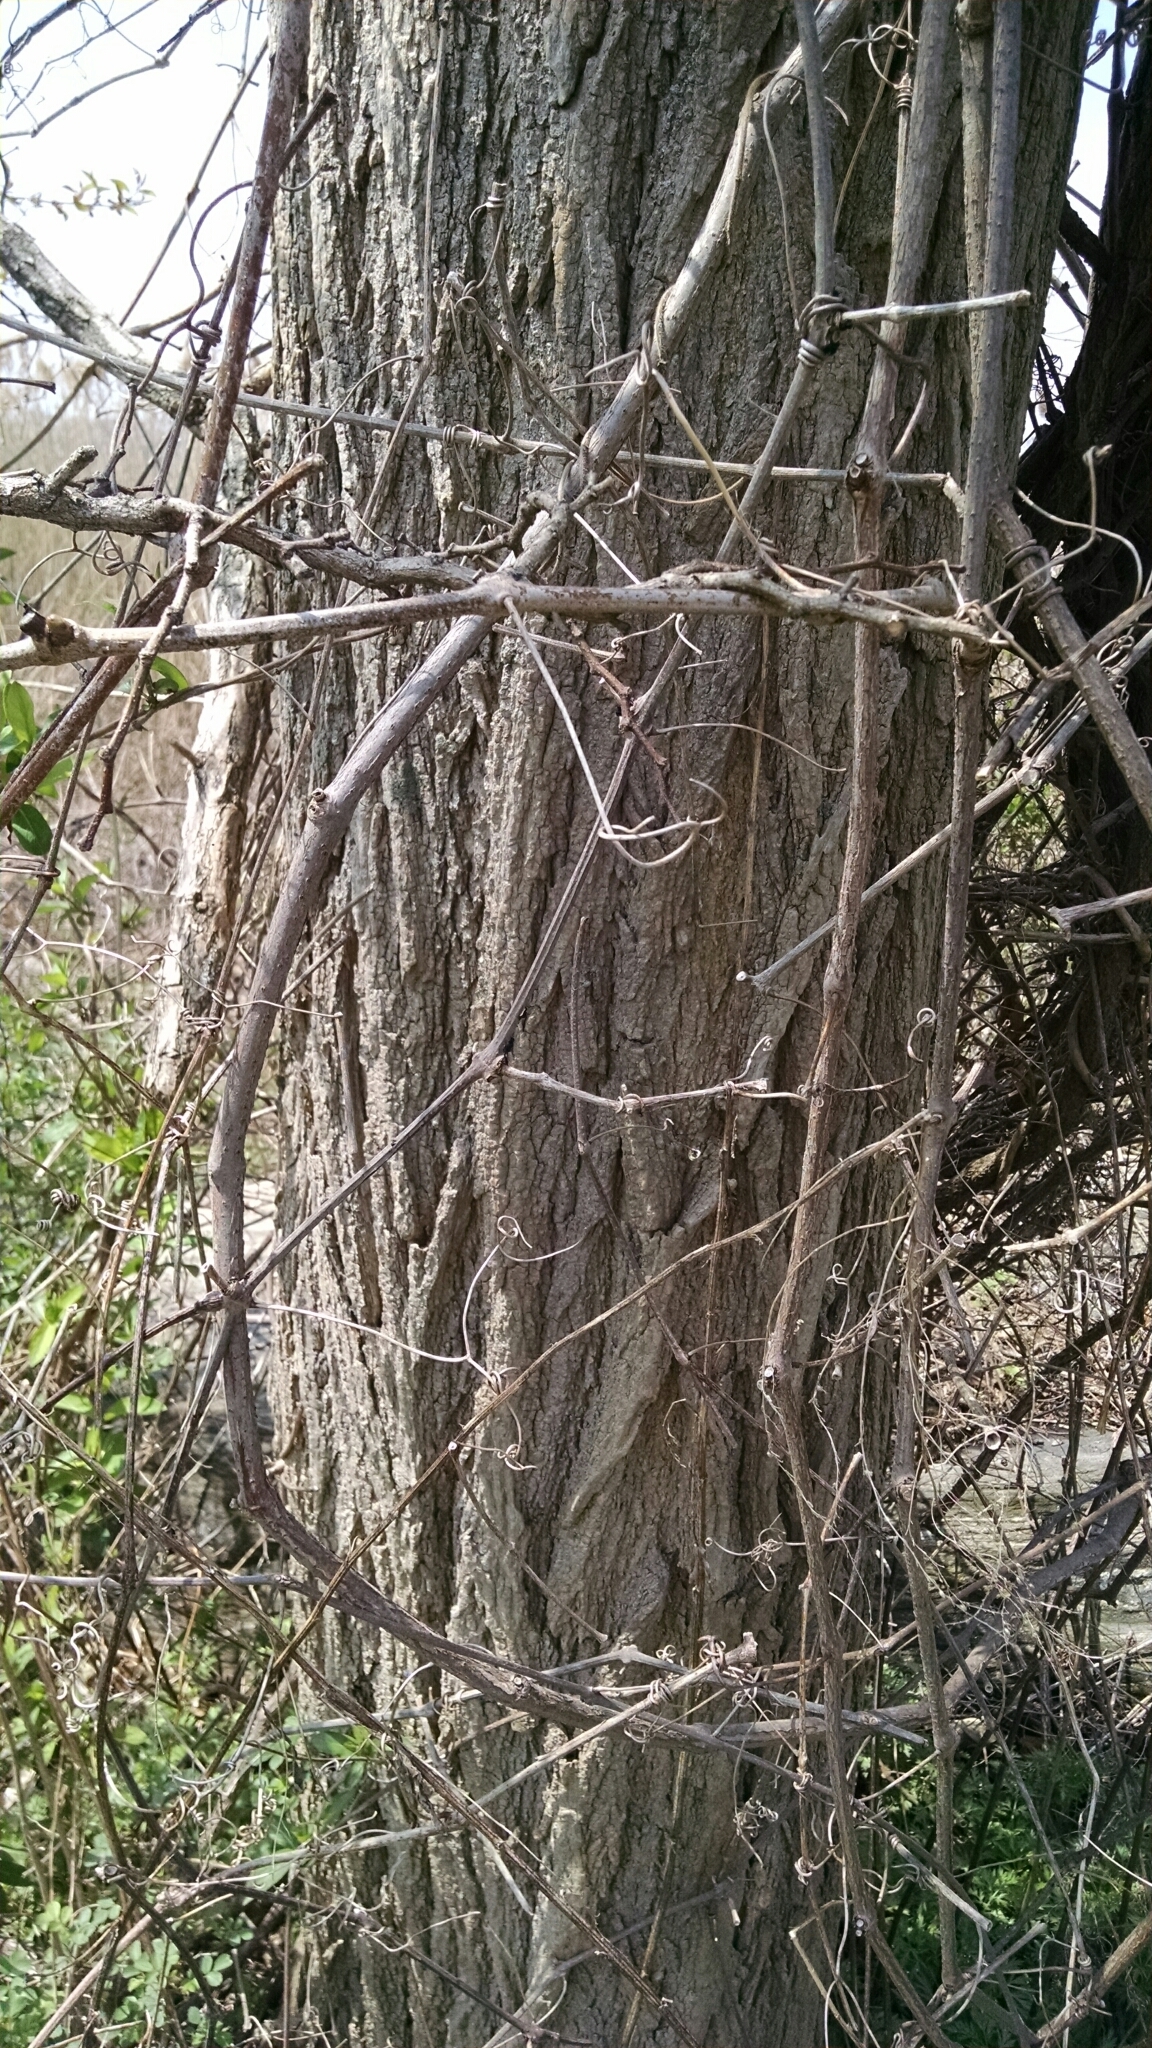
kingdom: Plantae
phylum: Tracheophyta
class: Magnoliopsida
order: Fabales
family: Fabaceae
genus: Robinia
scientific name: Robinia pseudoacacia
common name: Black locust
